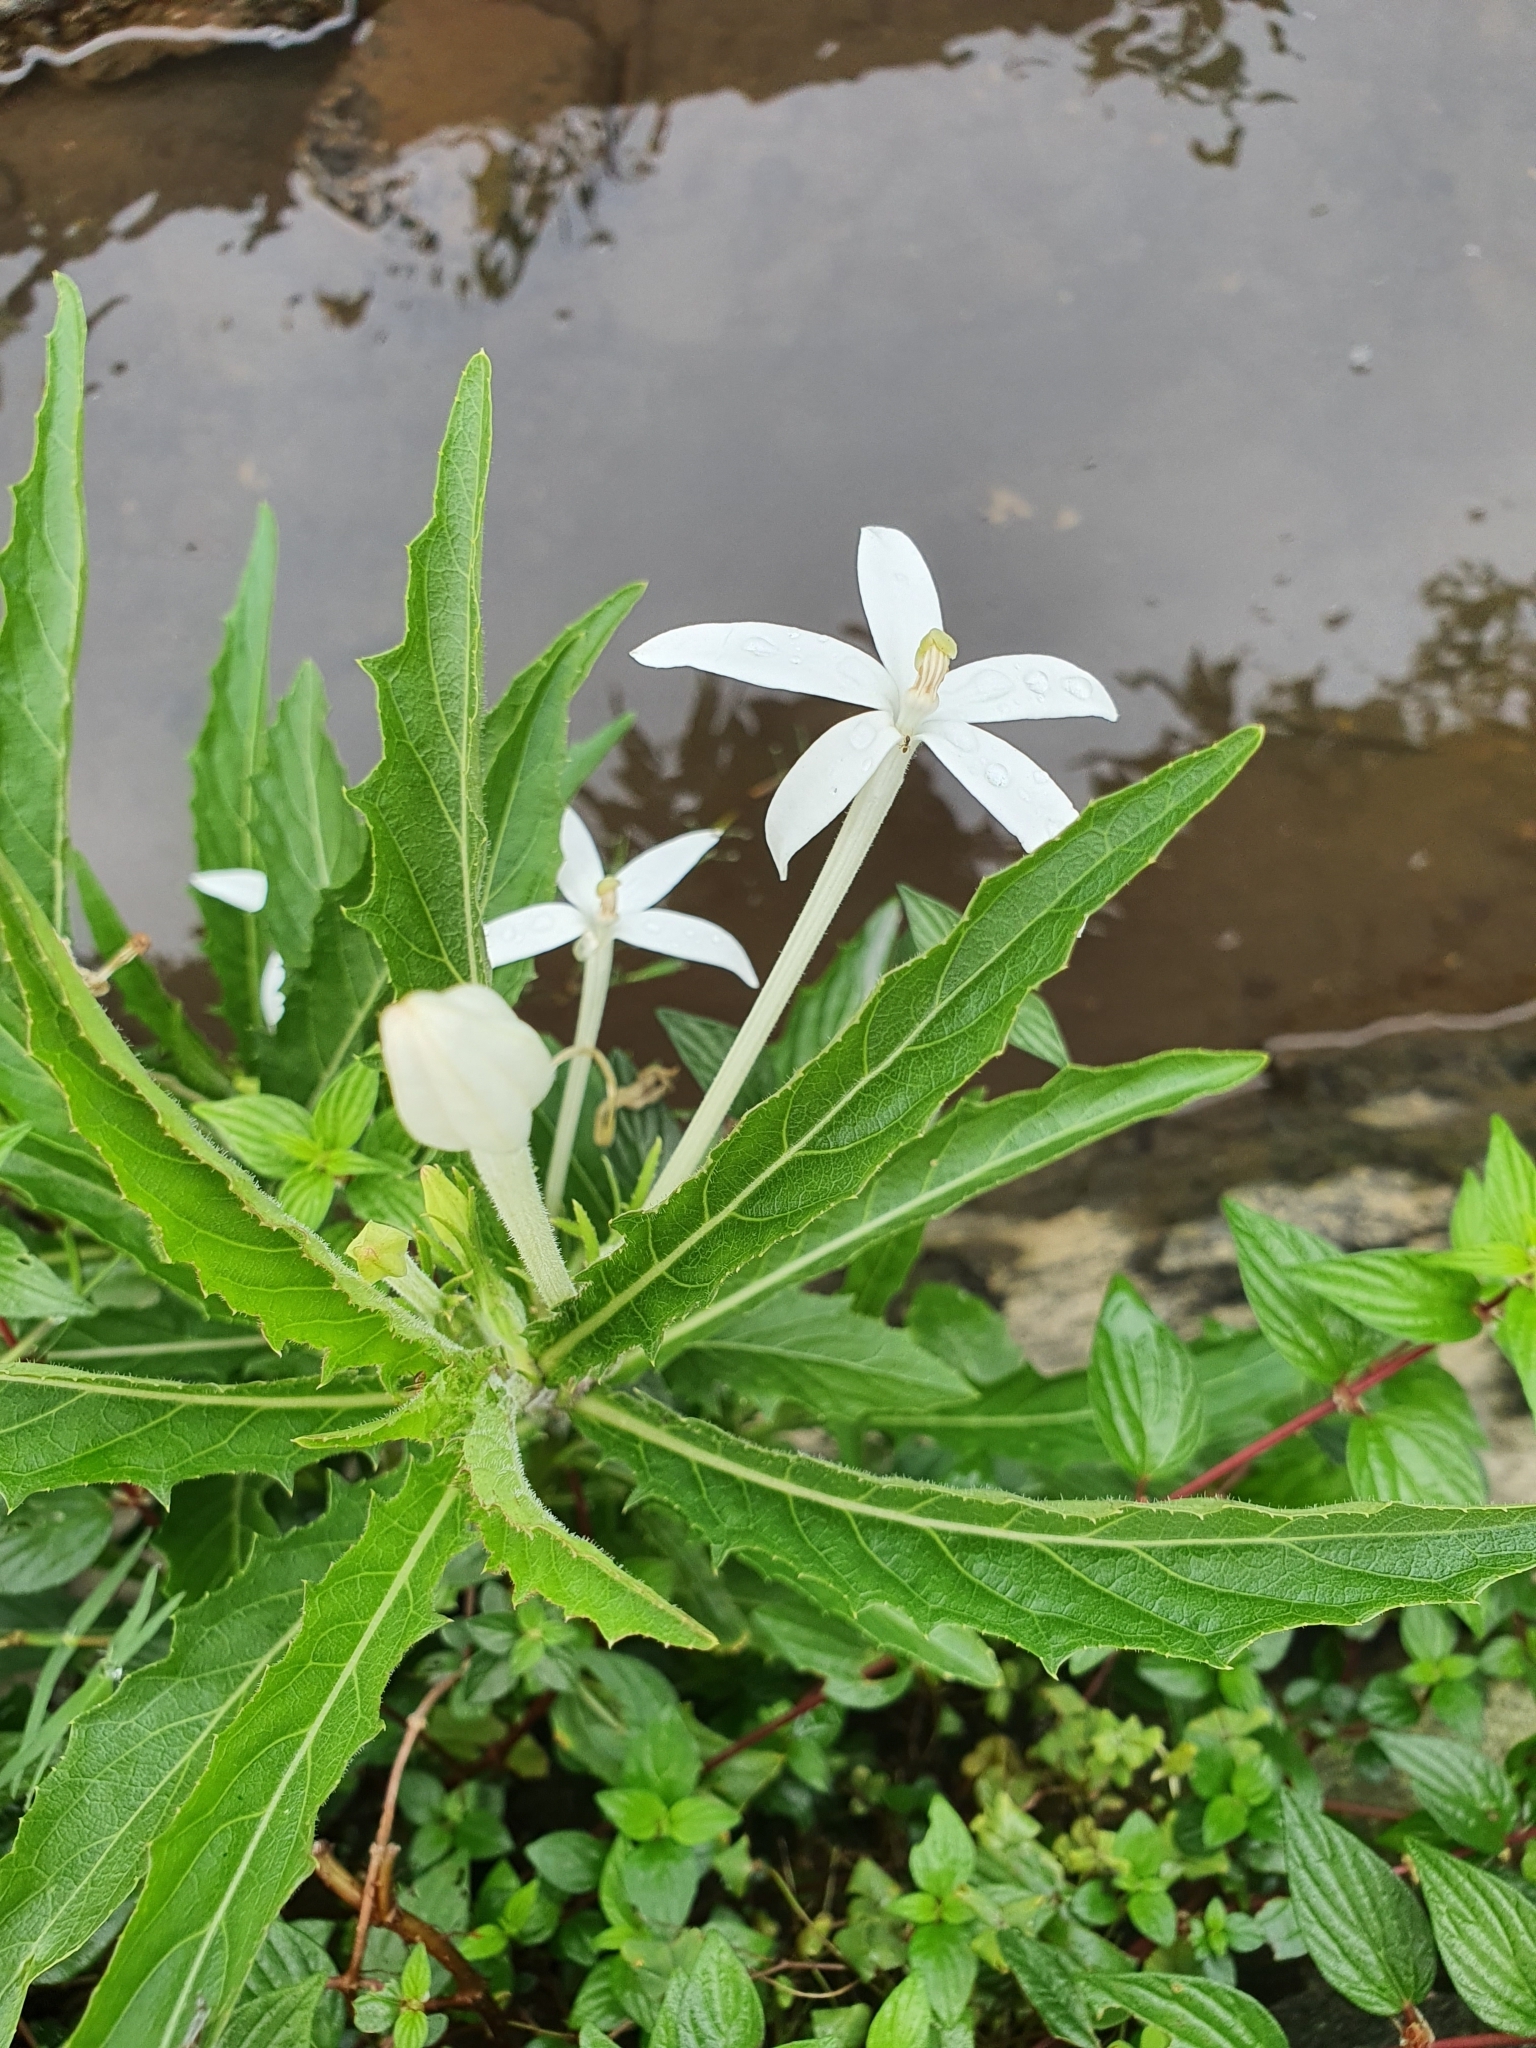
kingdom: Plantae
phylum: Tracheophyta
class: Magnoliopsida
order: Asterales
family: Campanulaceae
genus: Hippobroma
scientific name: Hippobroma longiflora
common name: Madamfate
